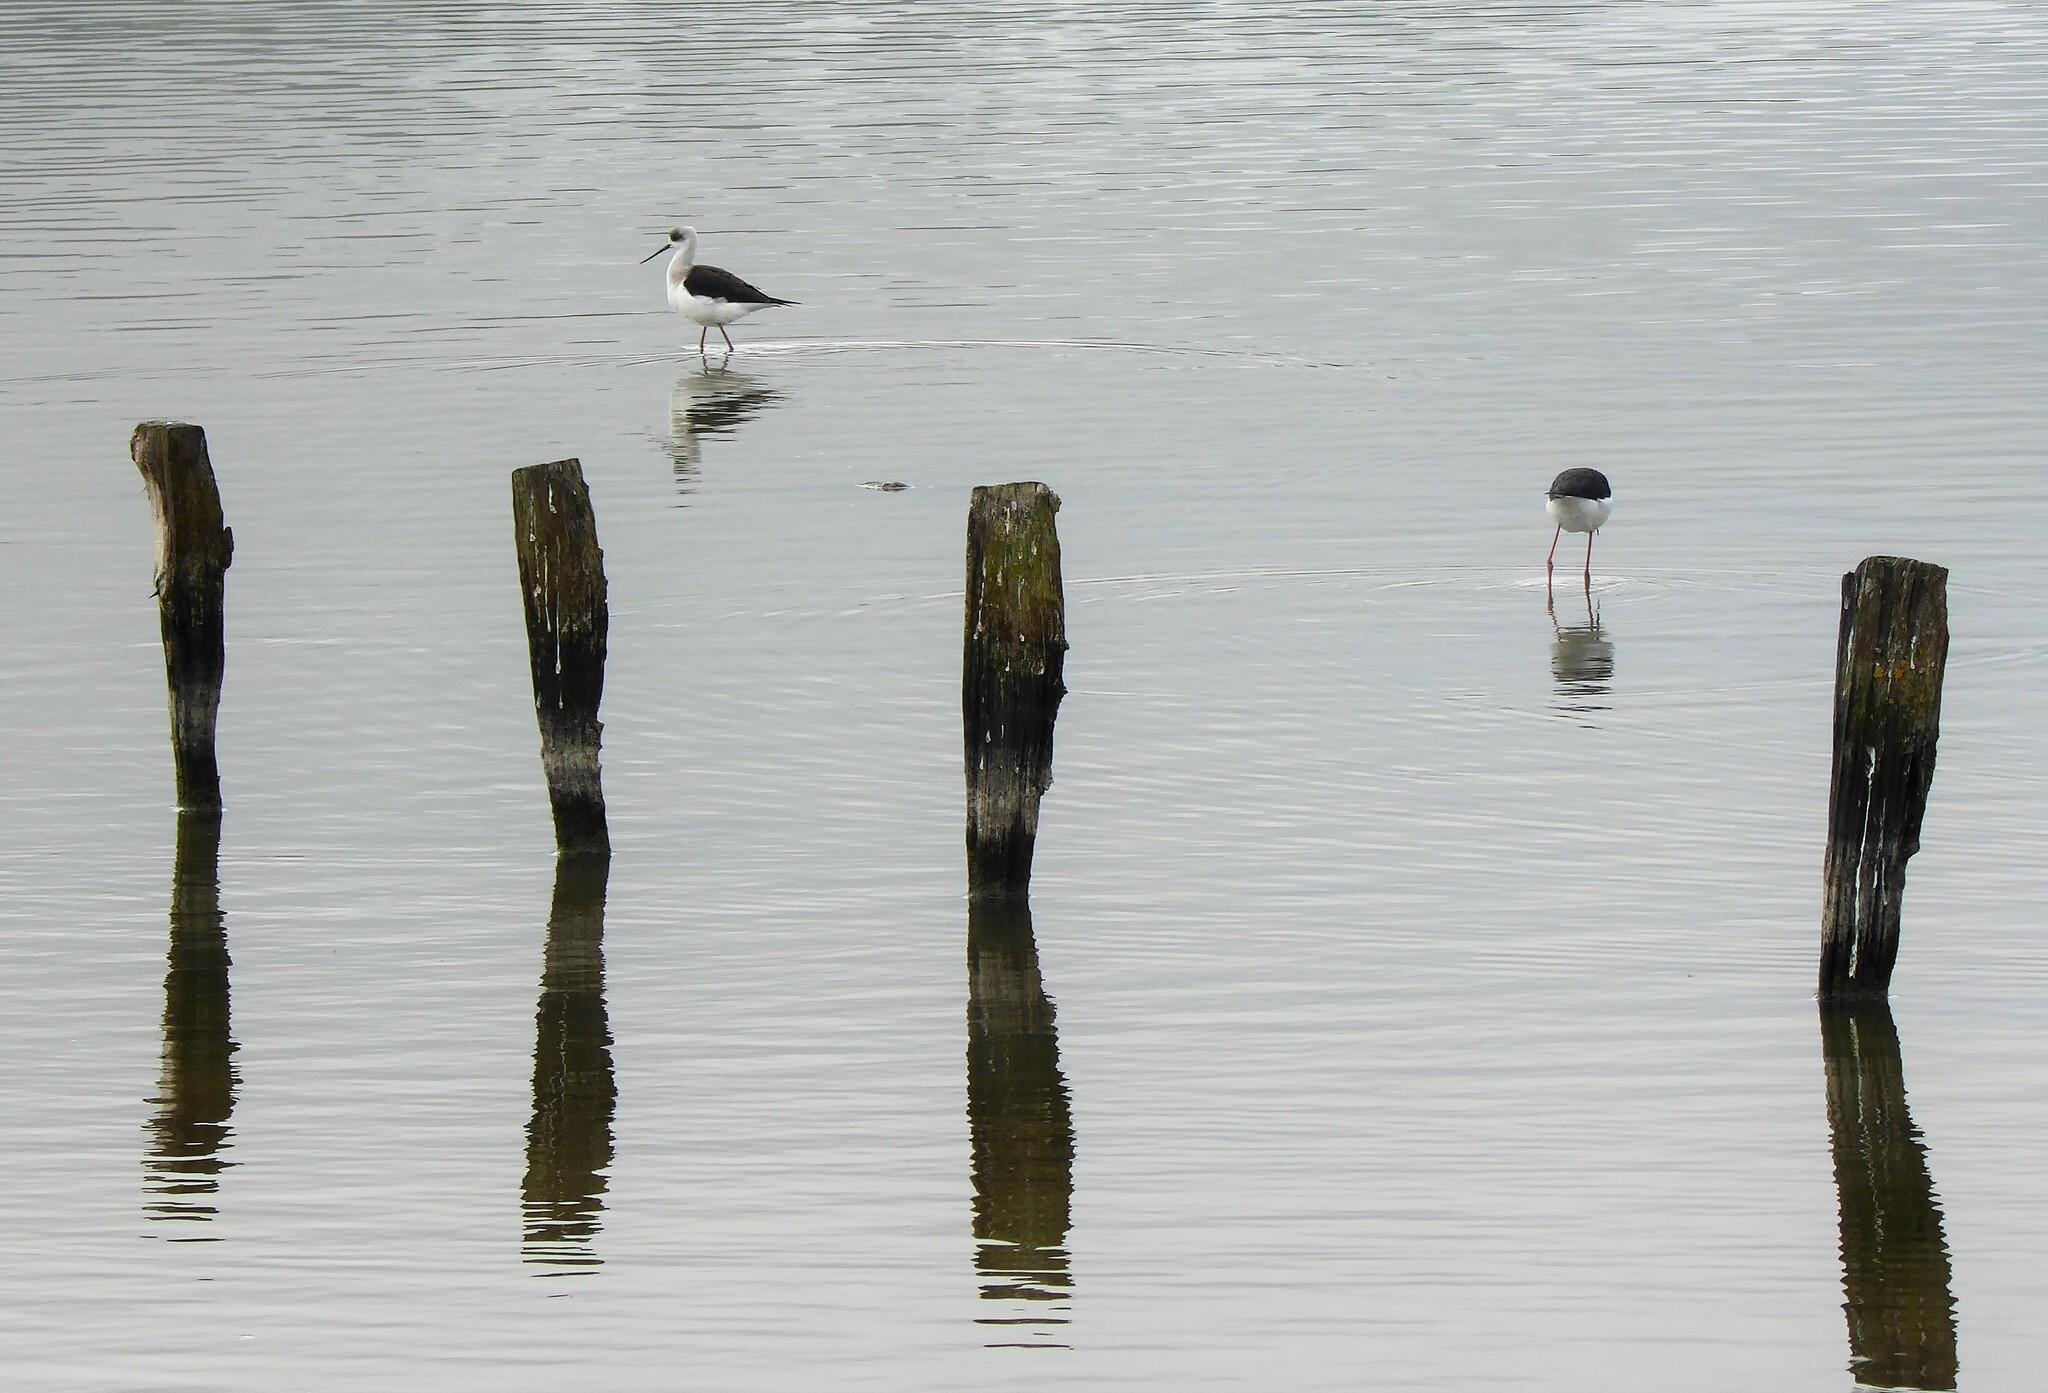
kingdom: Animalia
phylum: Chordata
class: Aves
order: Charadriiformes
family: Recurvirostridae
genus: Himantopus
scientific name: Himantopus leucocephalus
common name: White-headed stilt
